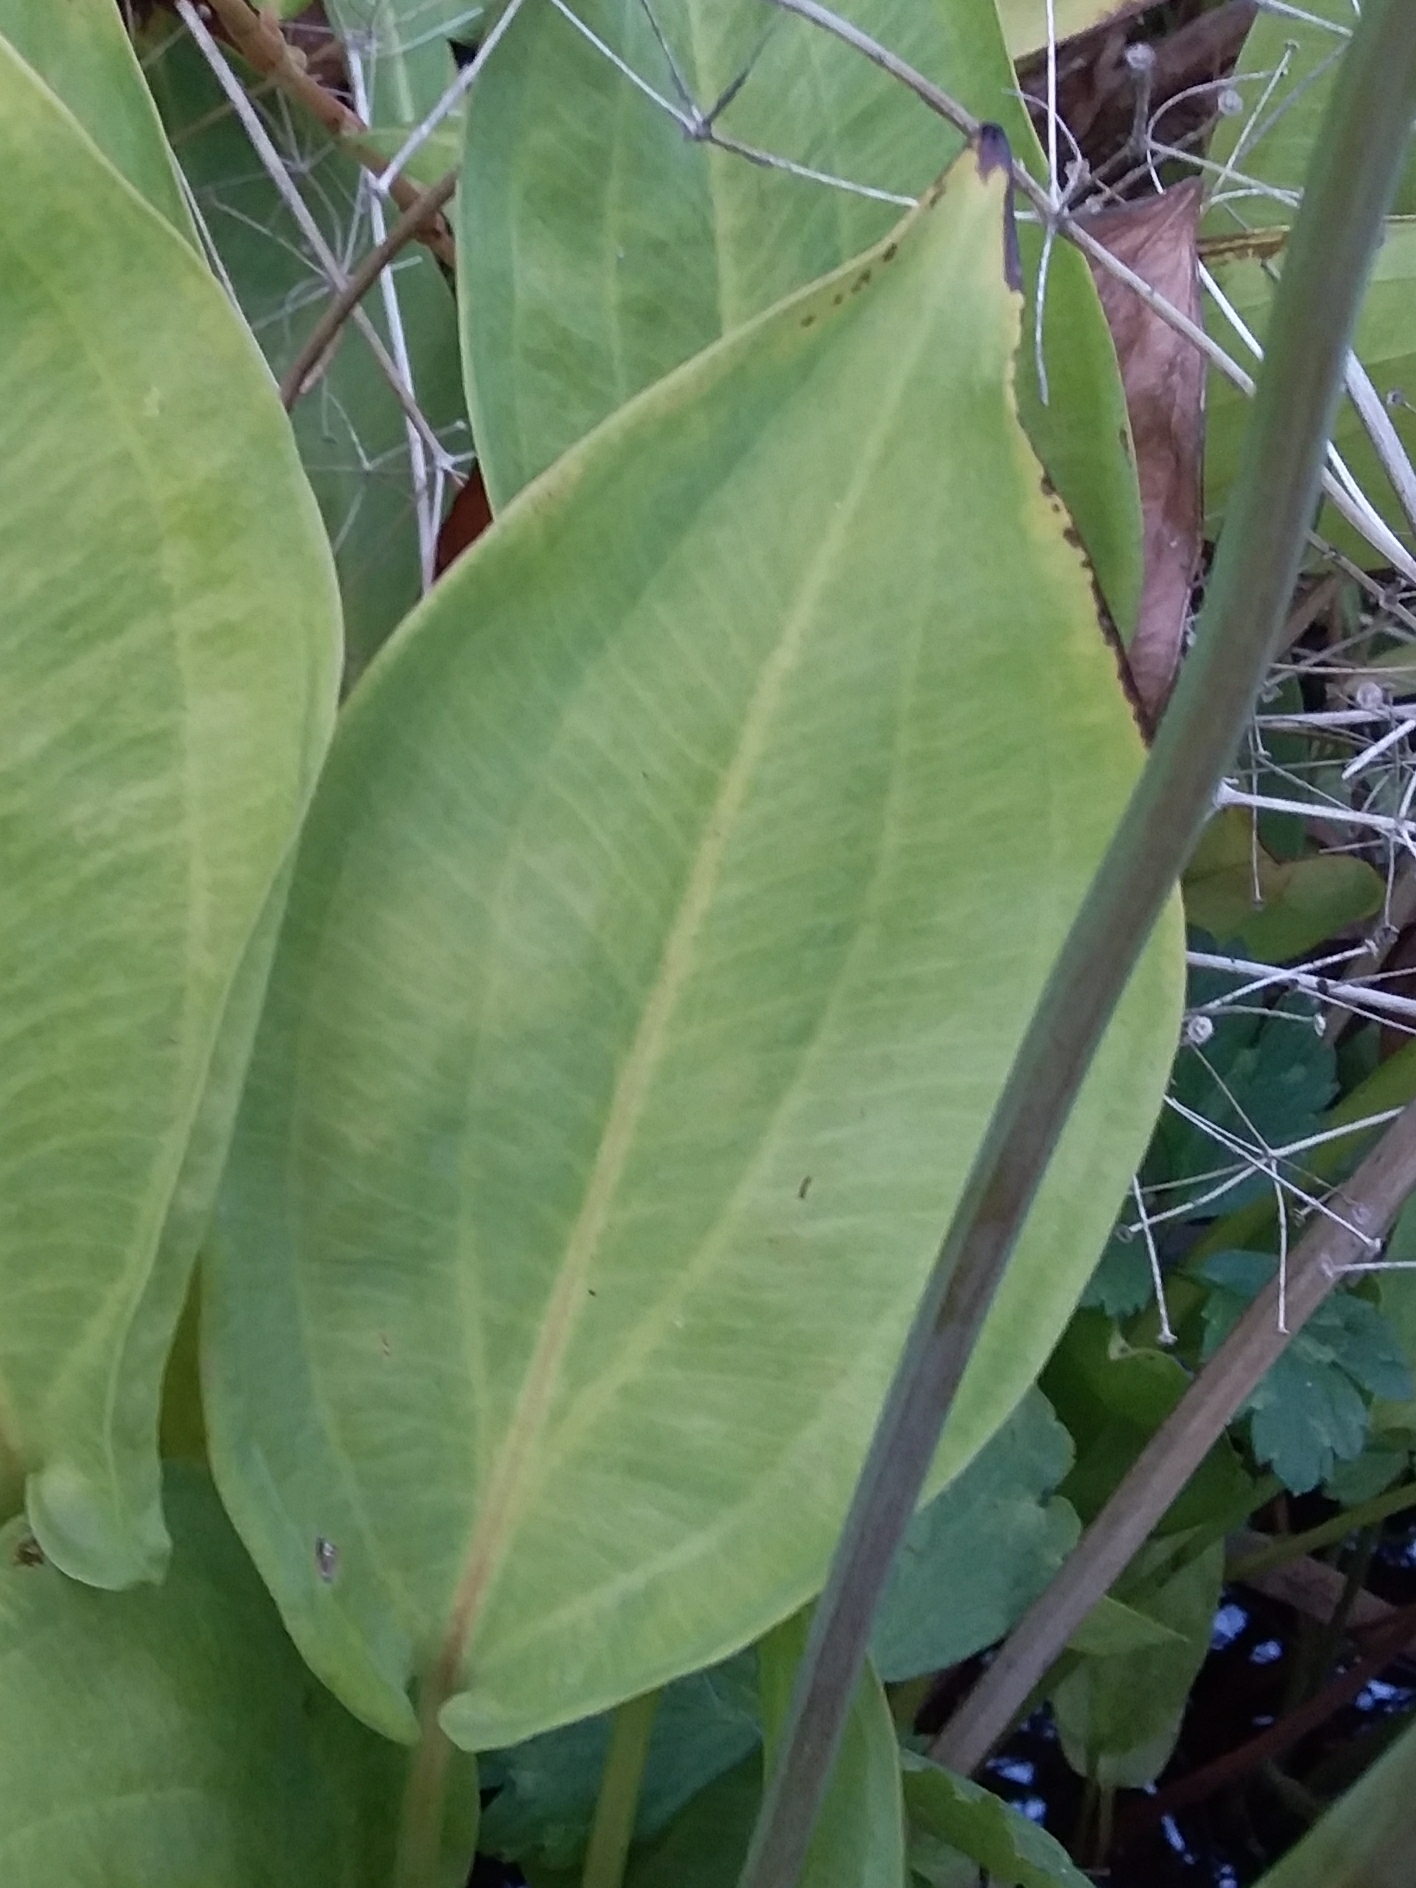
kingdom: Plantae
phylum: Tracheophyta
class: Liliopsida
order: Alismatales
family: Alismataceae
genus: Alisma
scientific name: Alisma plantago-aquatica
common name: Water-plantain
